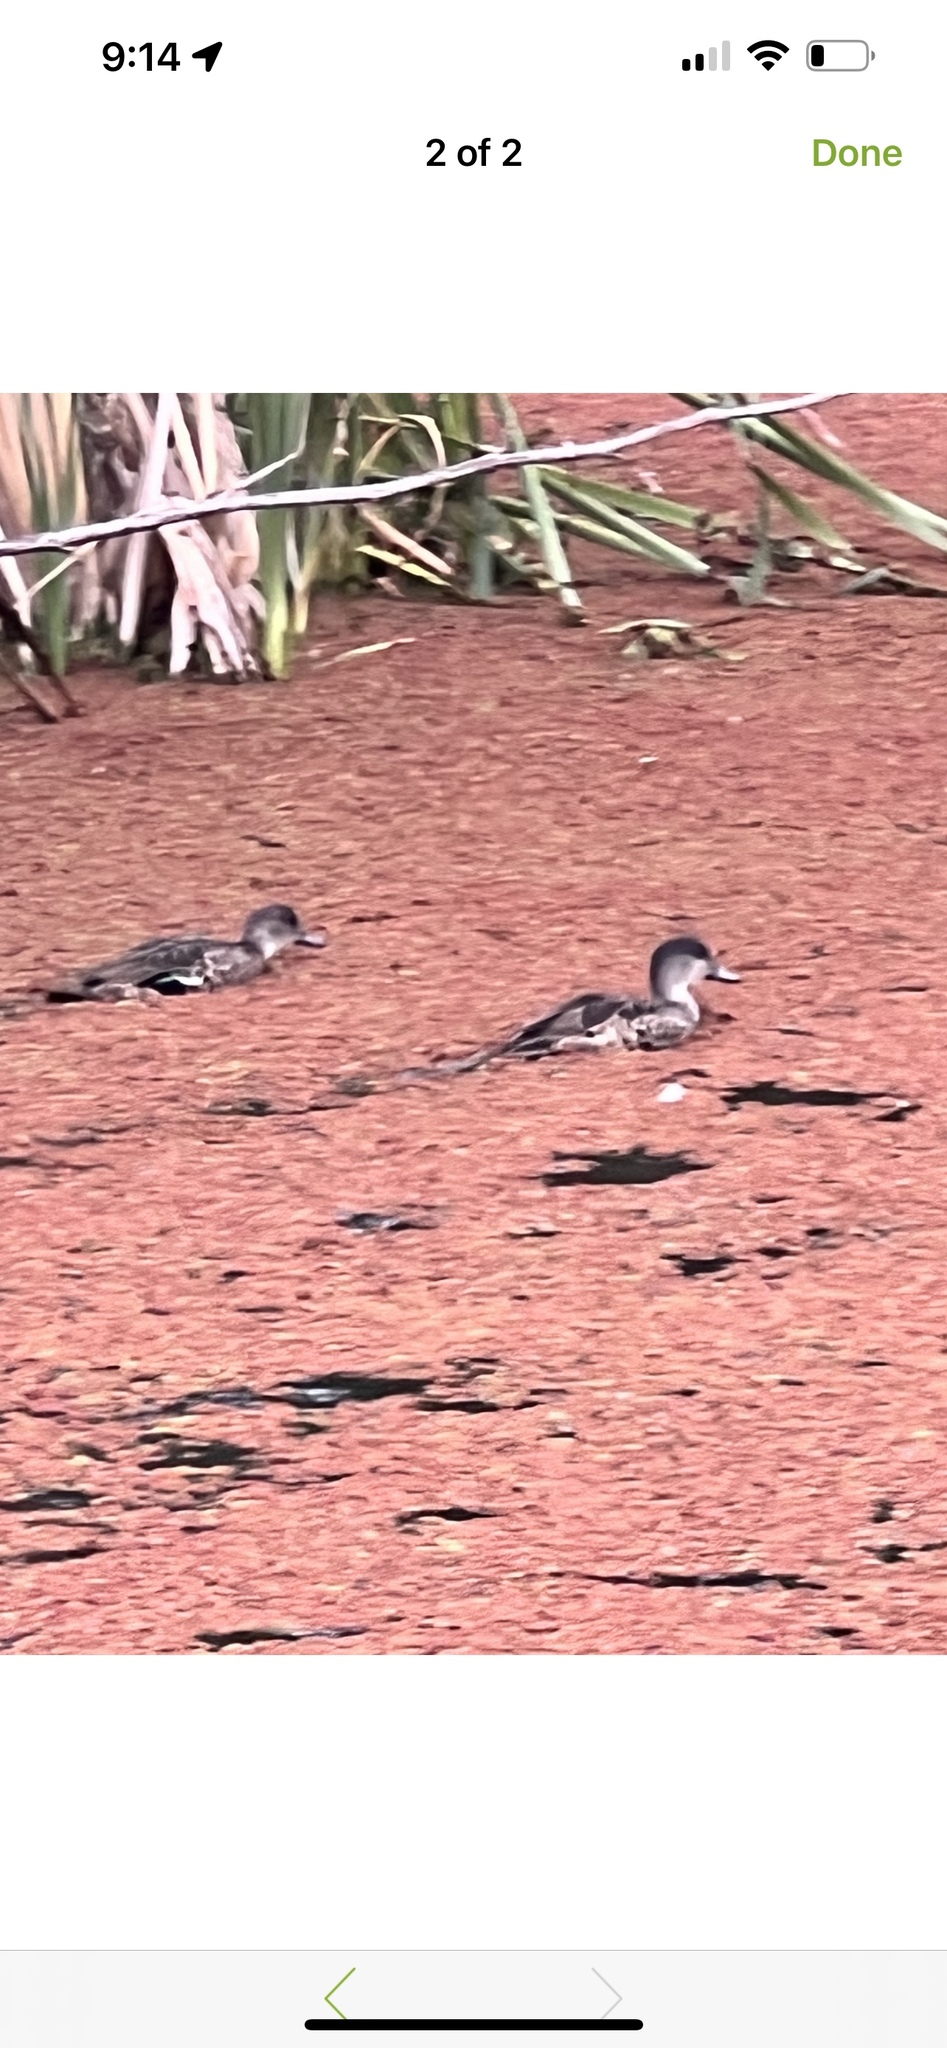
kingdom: Animalia
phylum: Chordata
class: Aves
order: Anseriformes
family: Anatidae
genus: Anas
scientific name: Anas gracilis
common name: Grey teal
